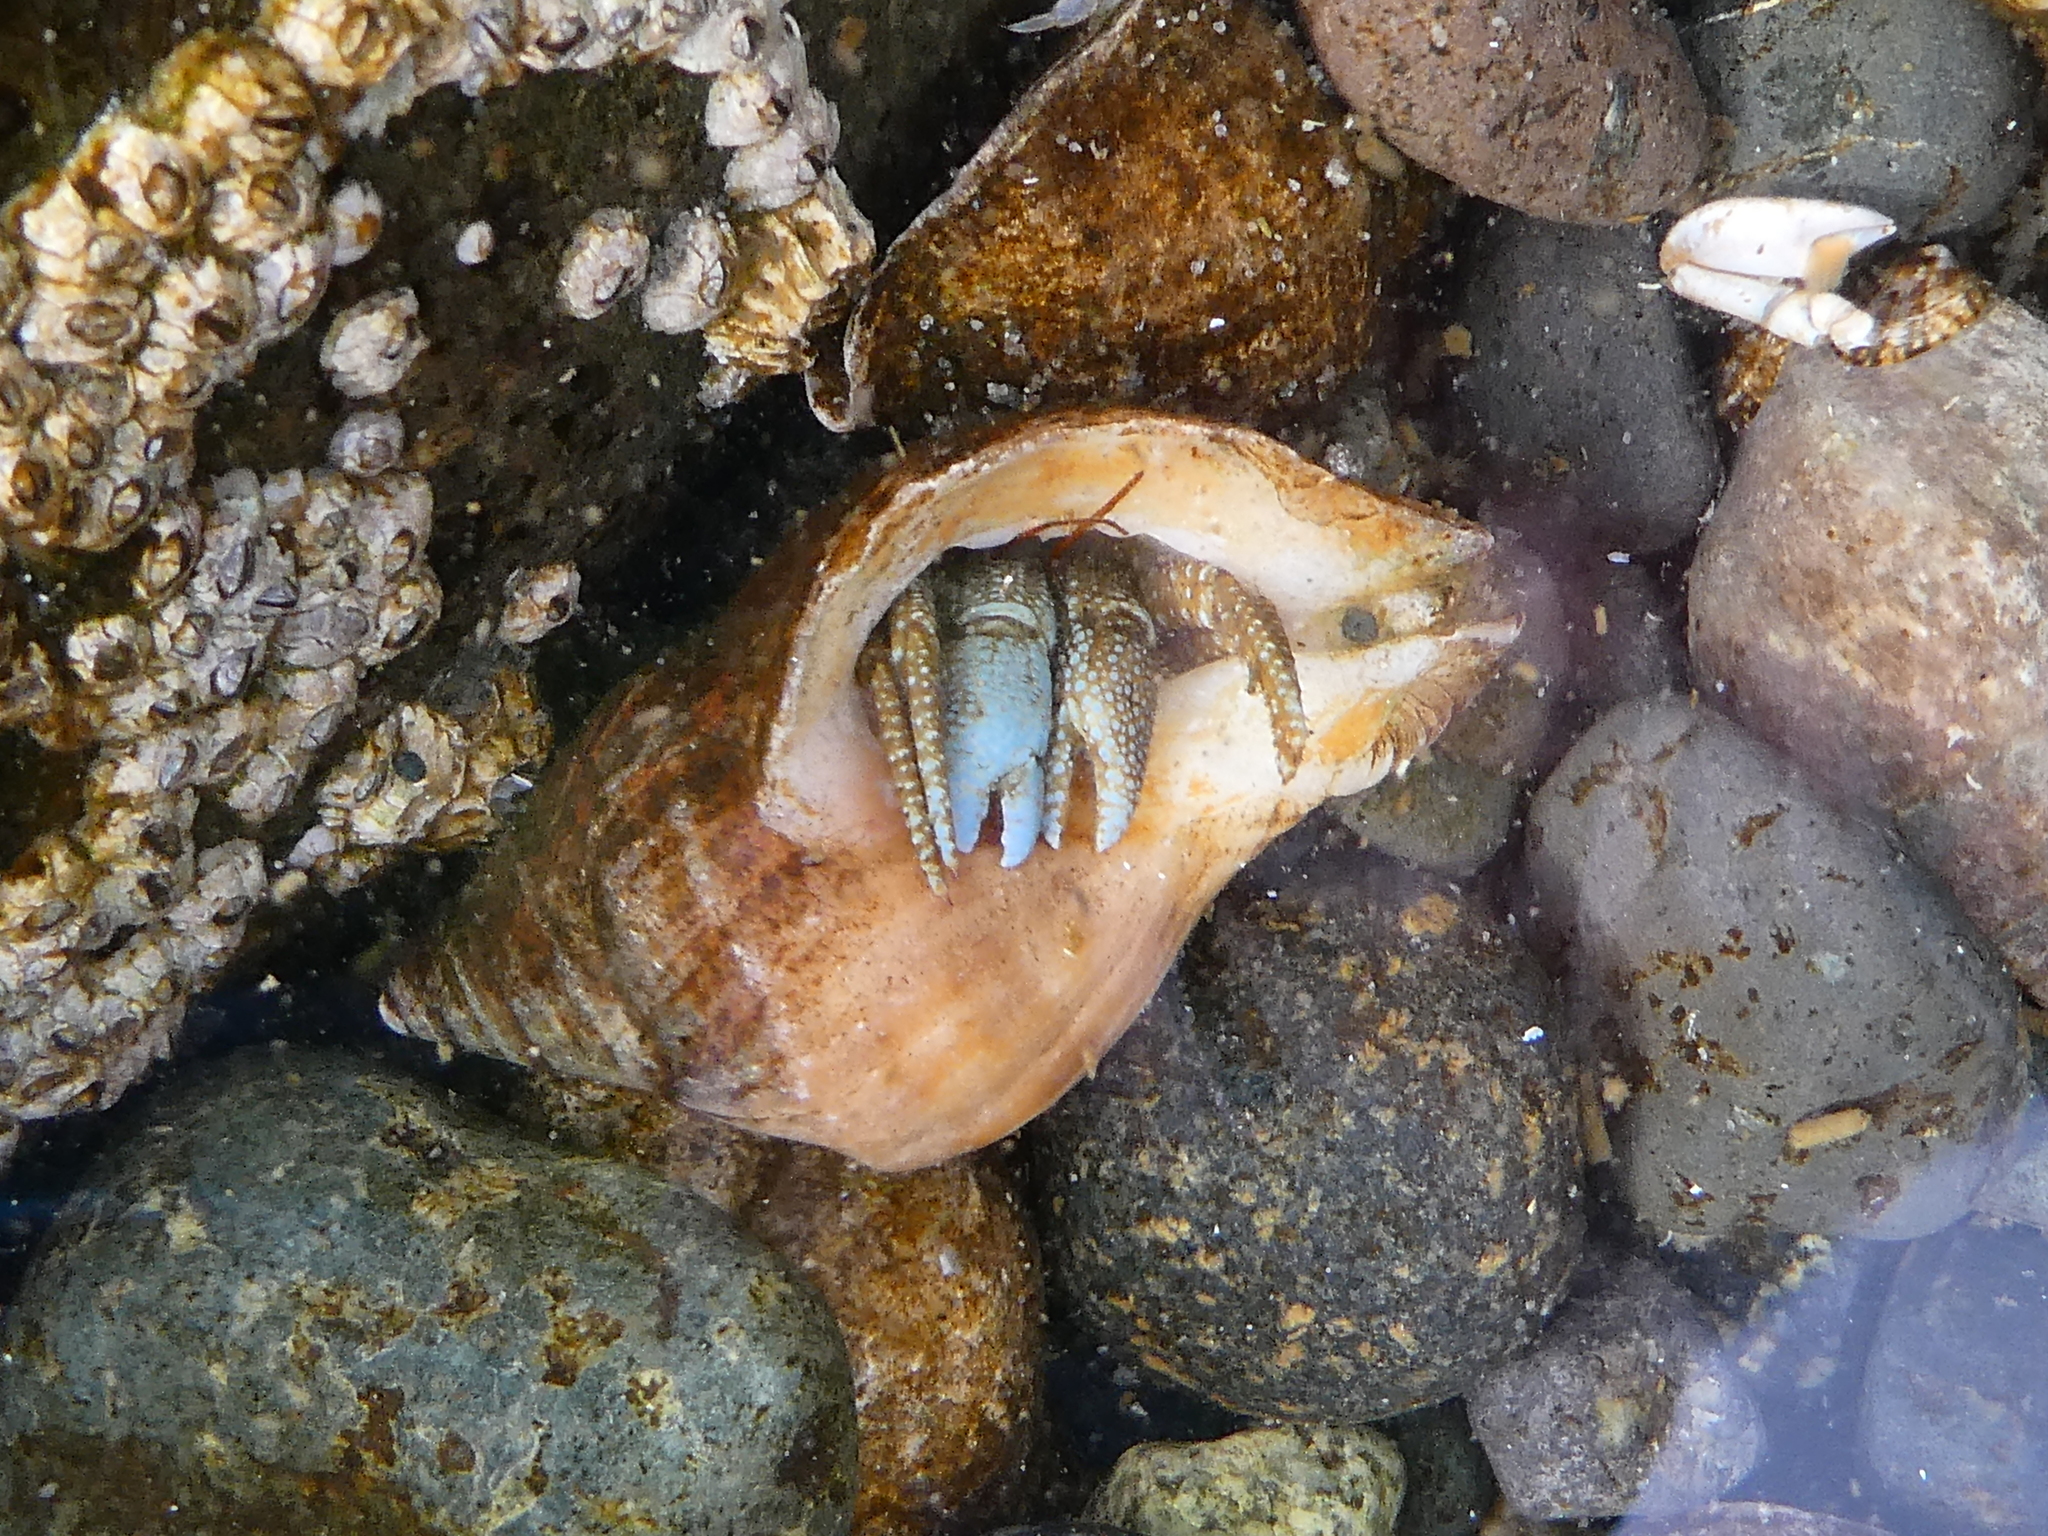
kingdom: Animalia
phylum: Arthropoda
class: Malacostraca
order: Decapoda
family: Paguridae
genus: Pagurus
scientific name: Pagurus granosimanus
